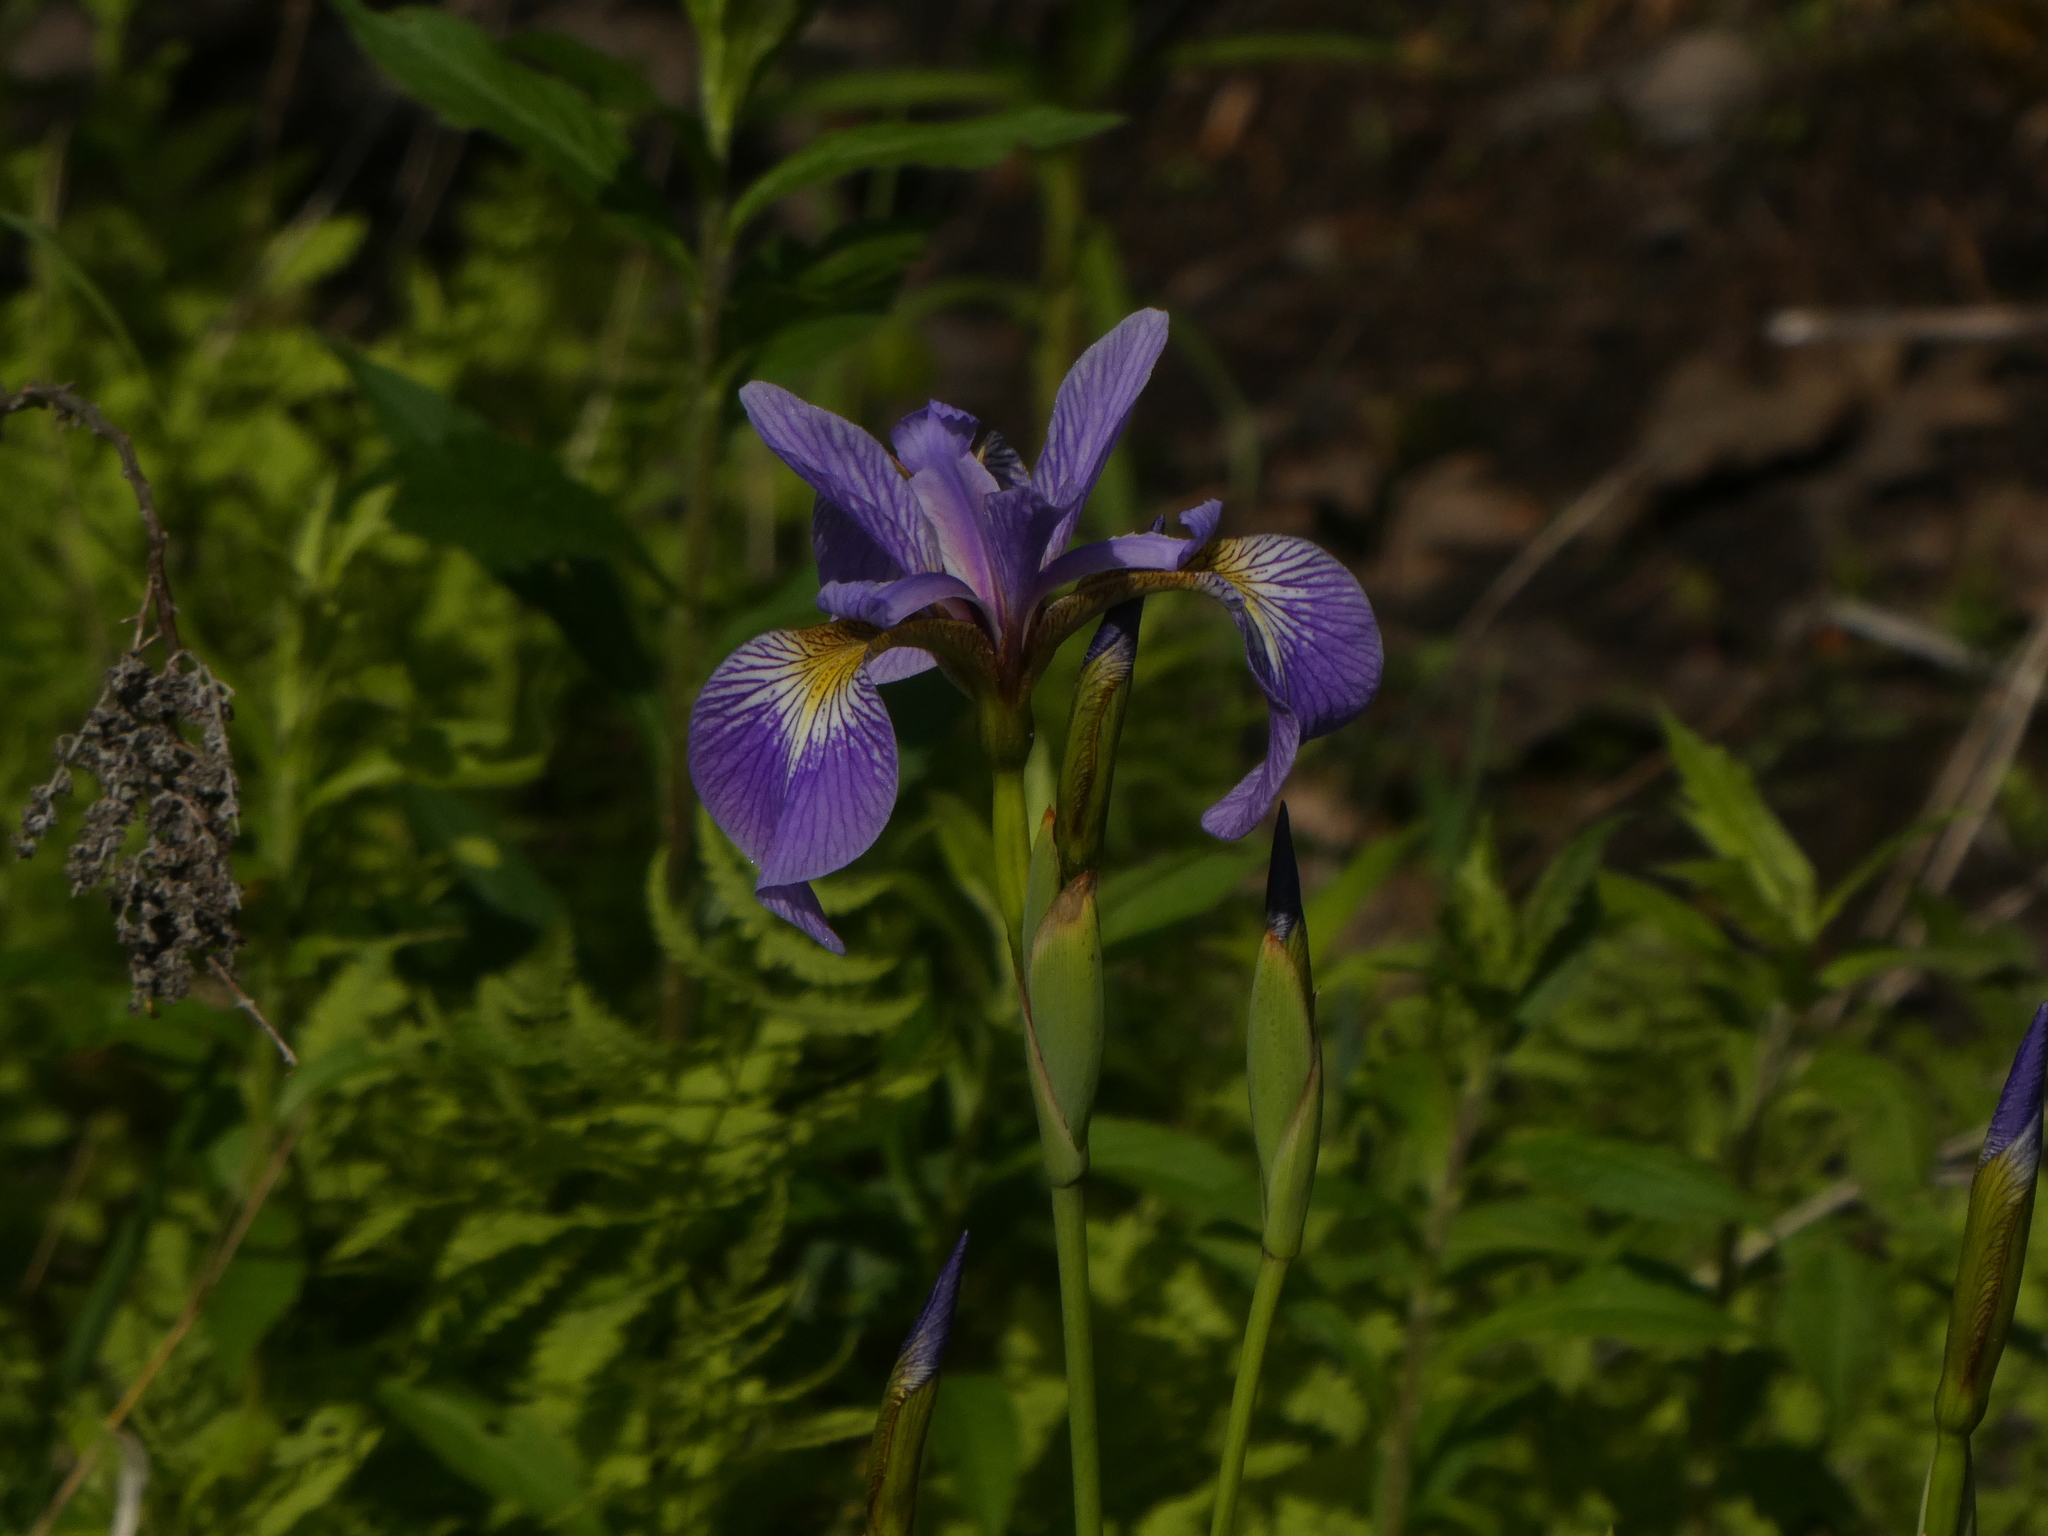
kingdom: Plantae
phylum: Tracheophyta
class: Liliopsida
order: Asparagales
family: Iridaceae
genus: Iris
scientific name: Iris versicolor
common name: Purple iris
